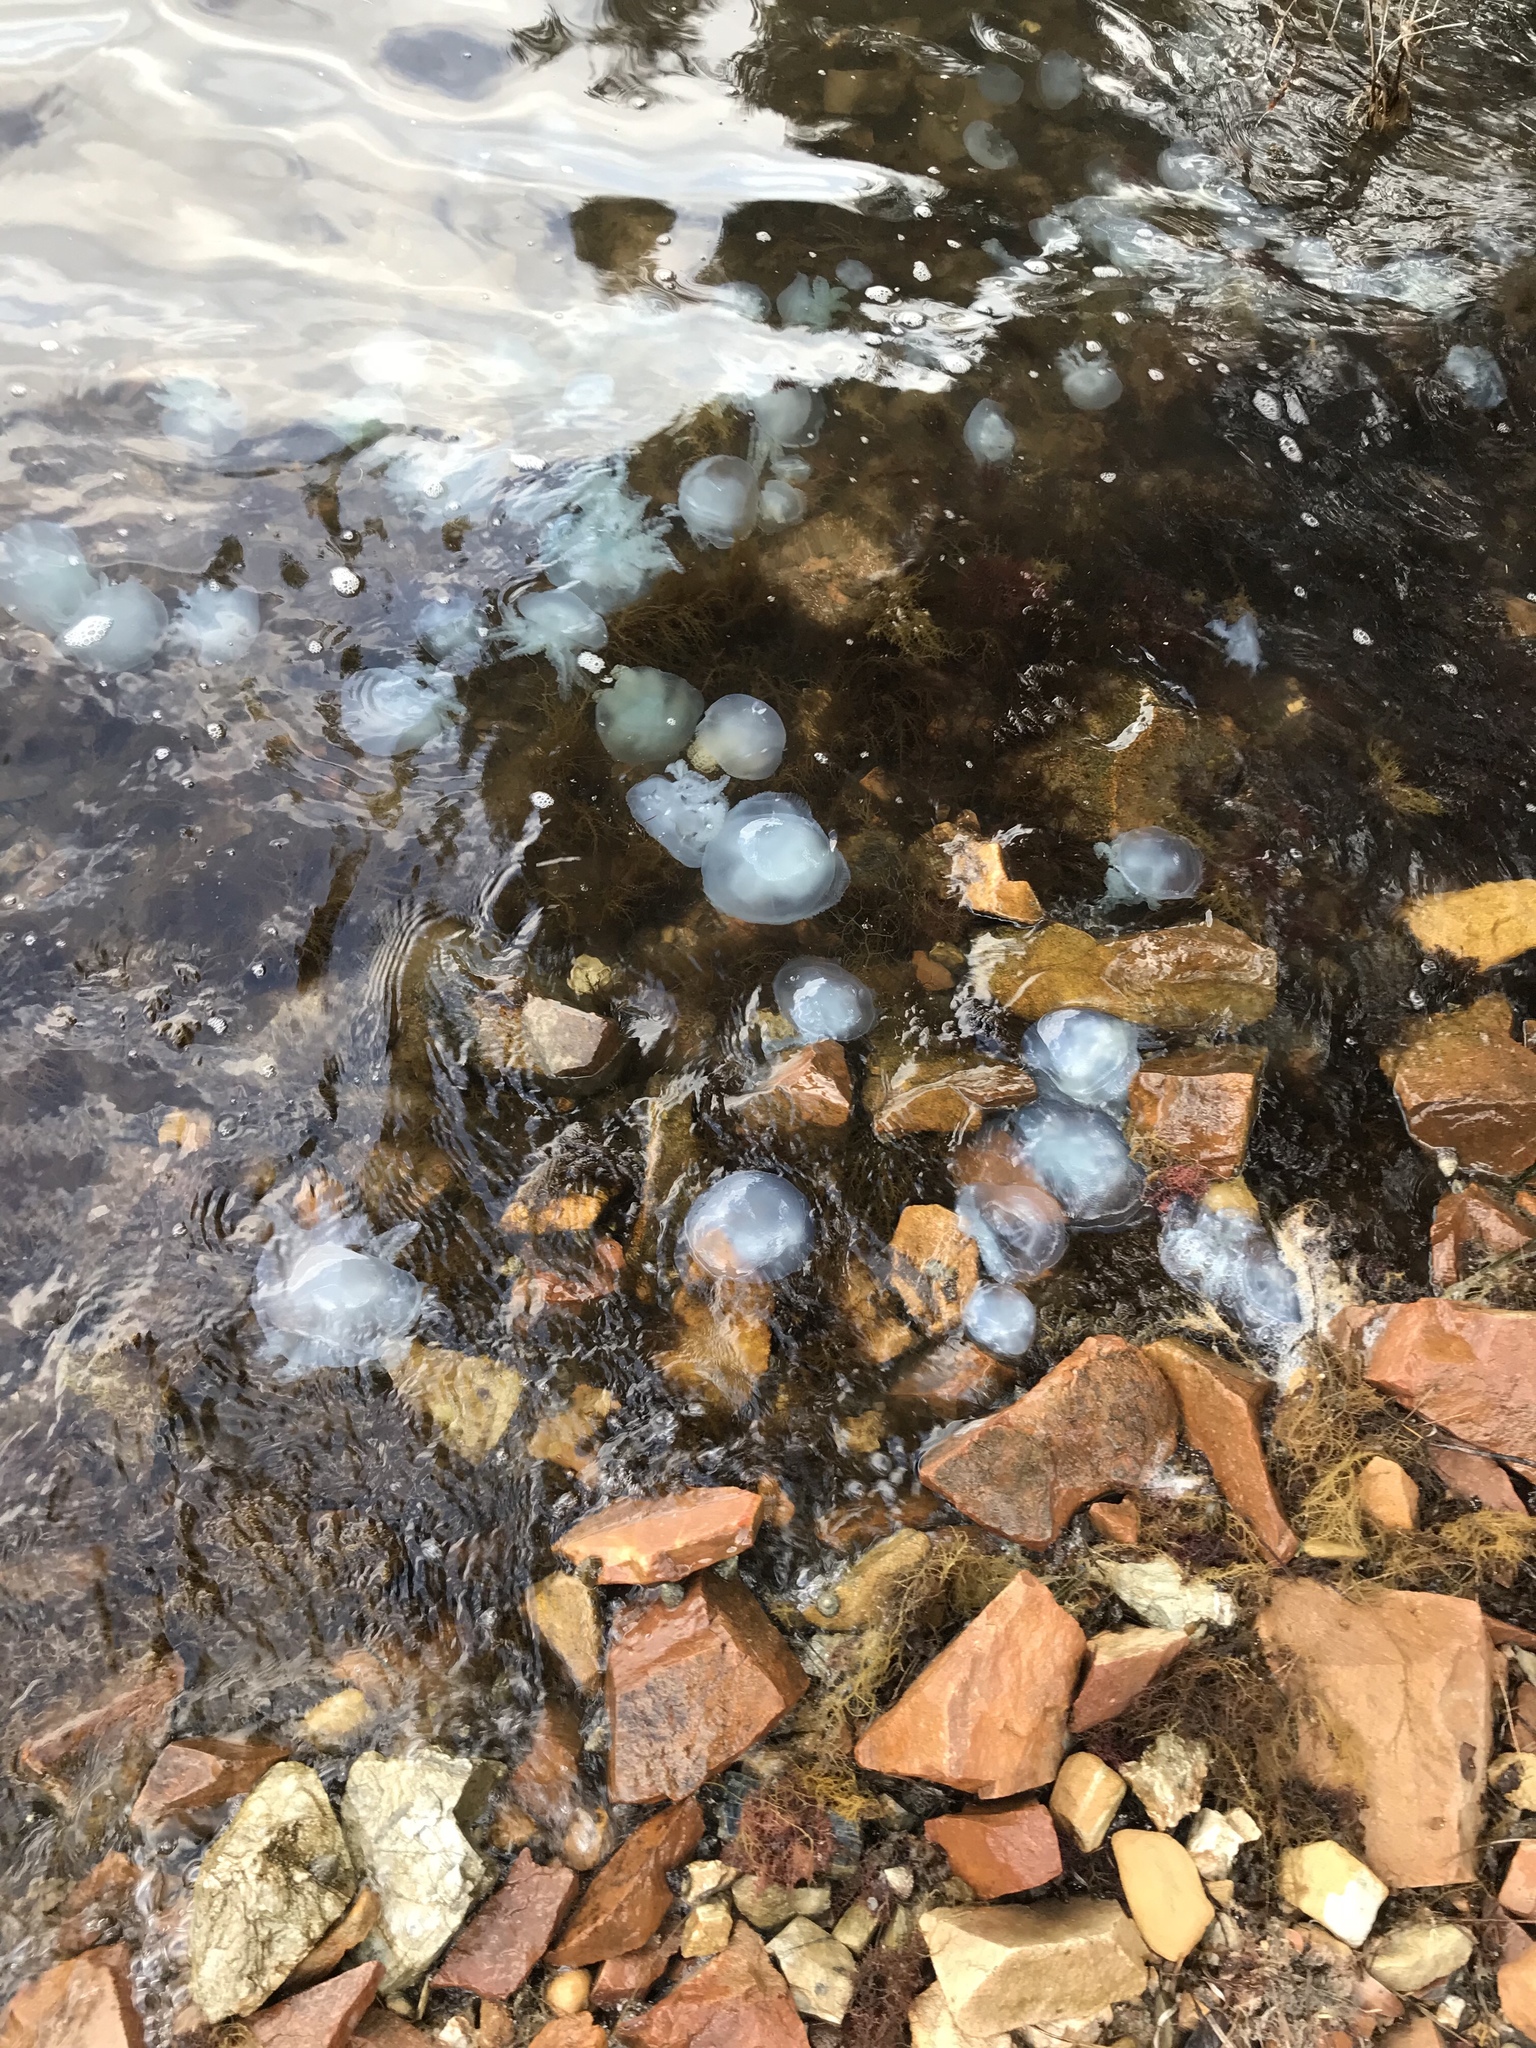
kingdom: Animalia
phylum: Cnidaria
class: Scyphozoa
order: Rhizostomeae
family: Catostylidae
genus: Catostylus
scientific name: Catostylus mosaicus
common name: Blue blubber
